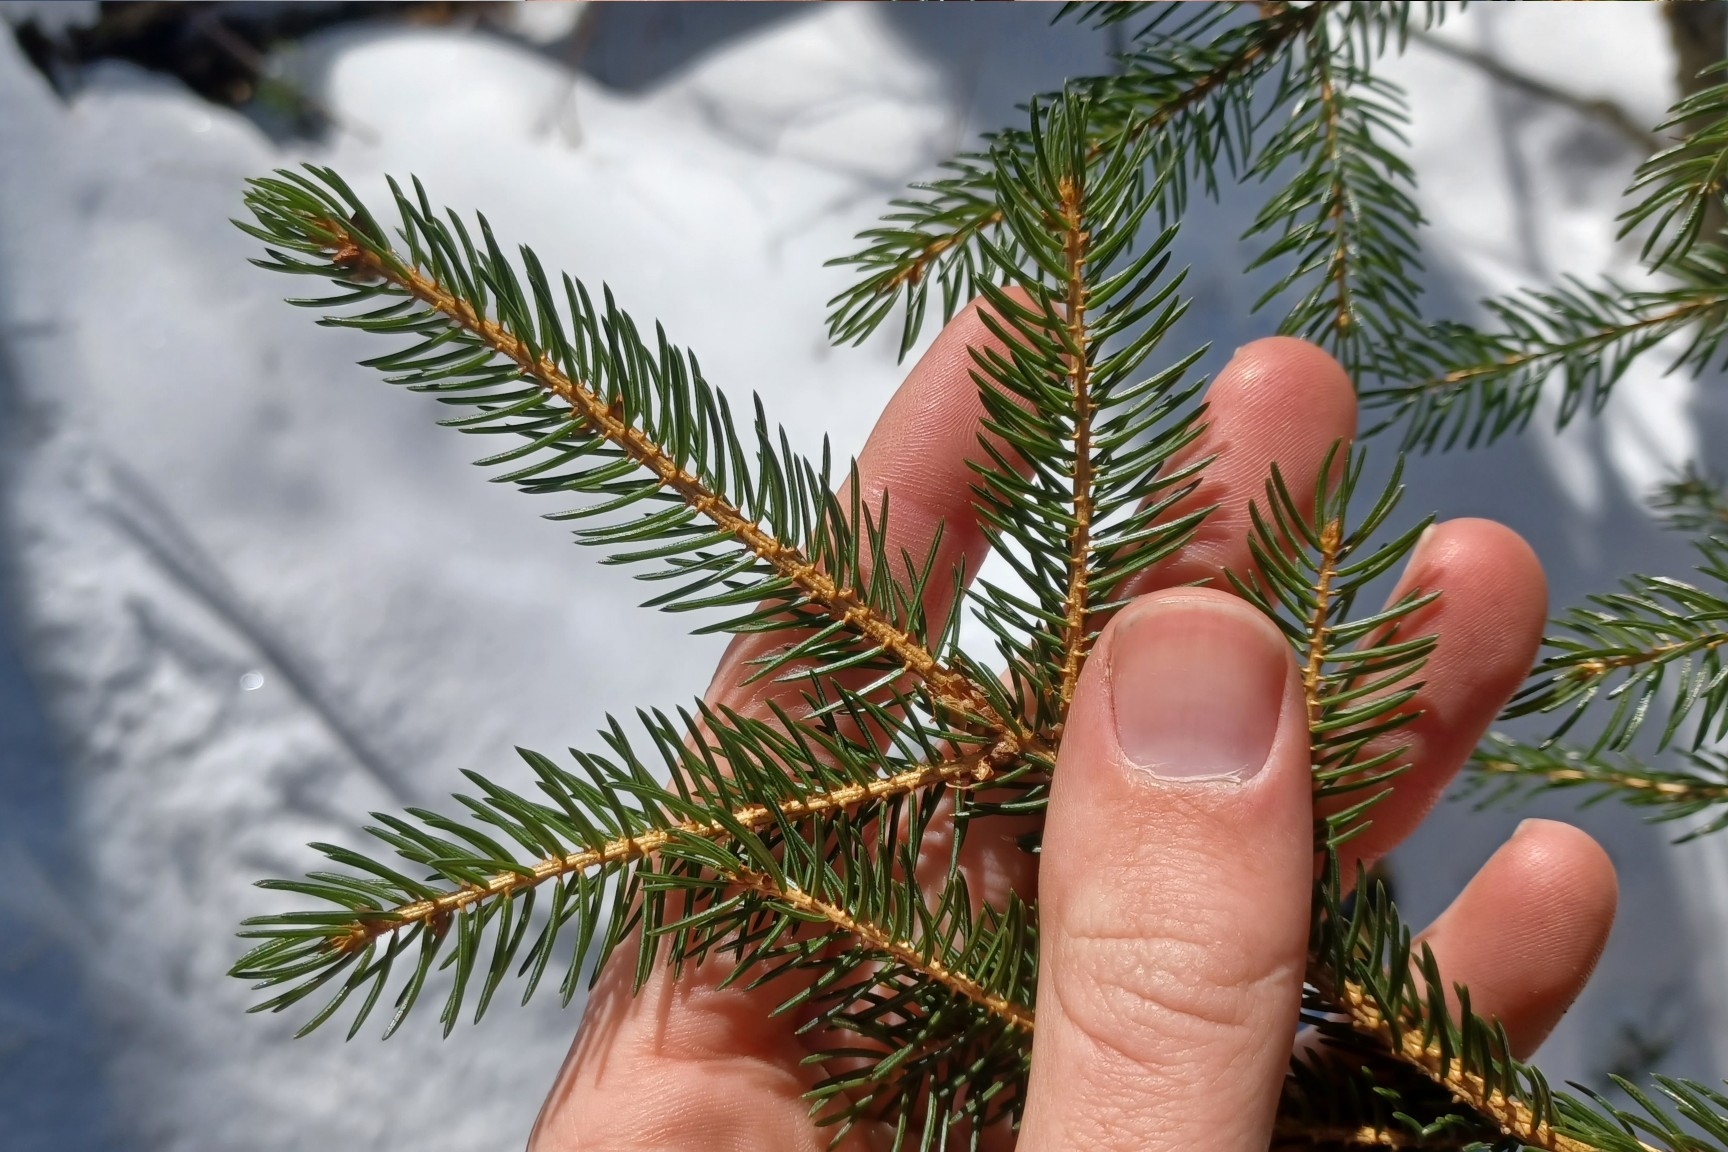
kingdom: Plantae
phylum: Tracheophyta
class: Pinopsida
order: Pinales
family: Pinaceae
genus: Picea
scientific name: Picea rubens
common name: Red spruce
